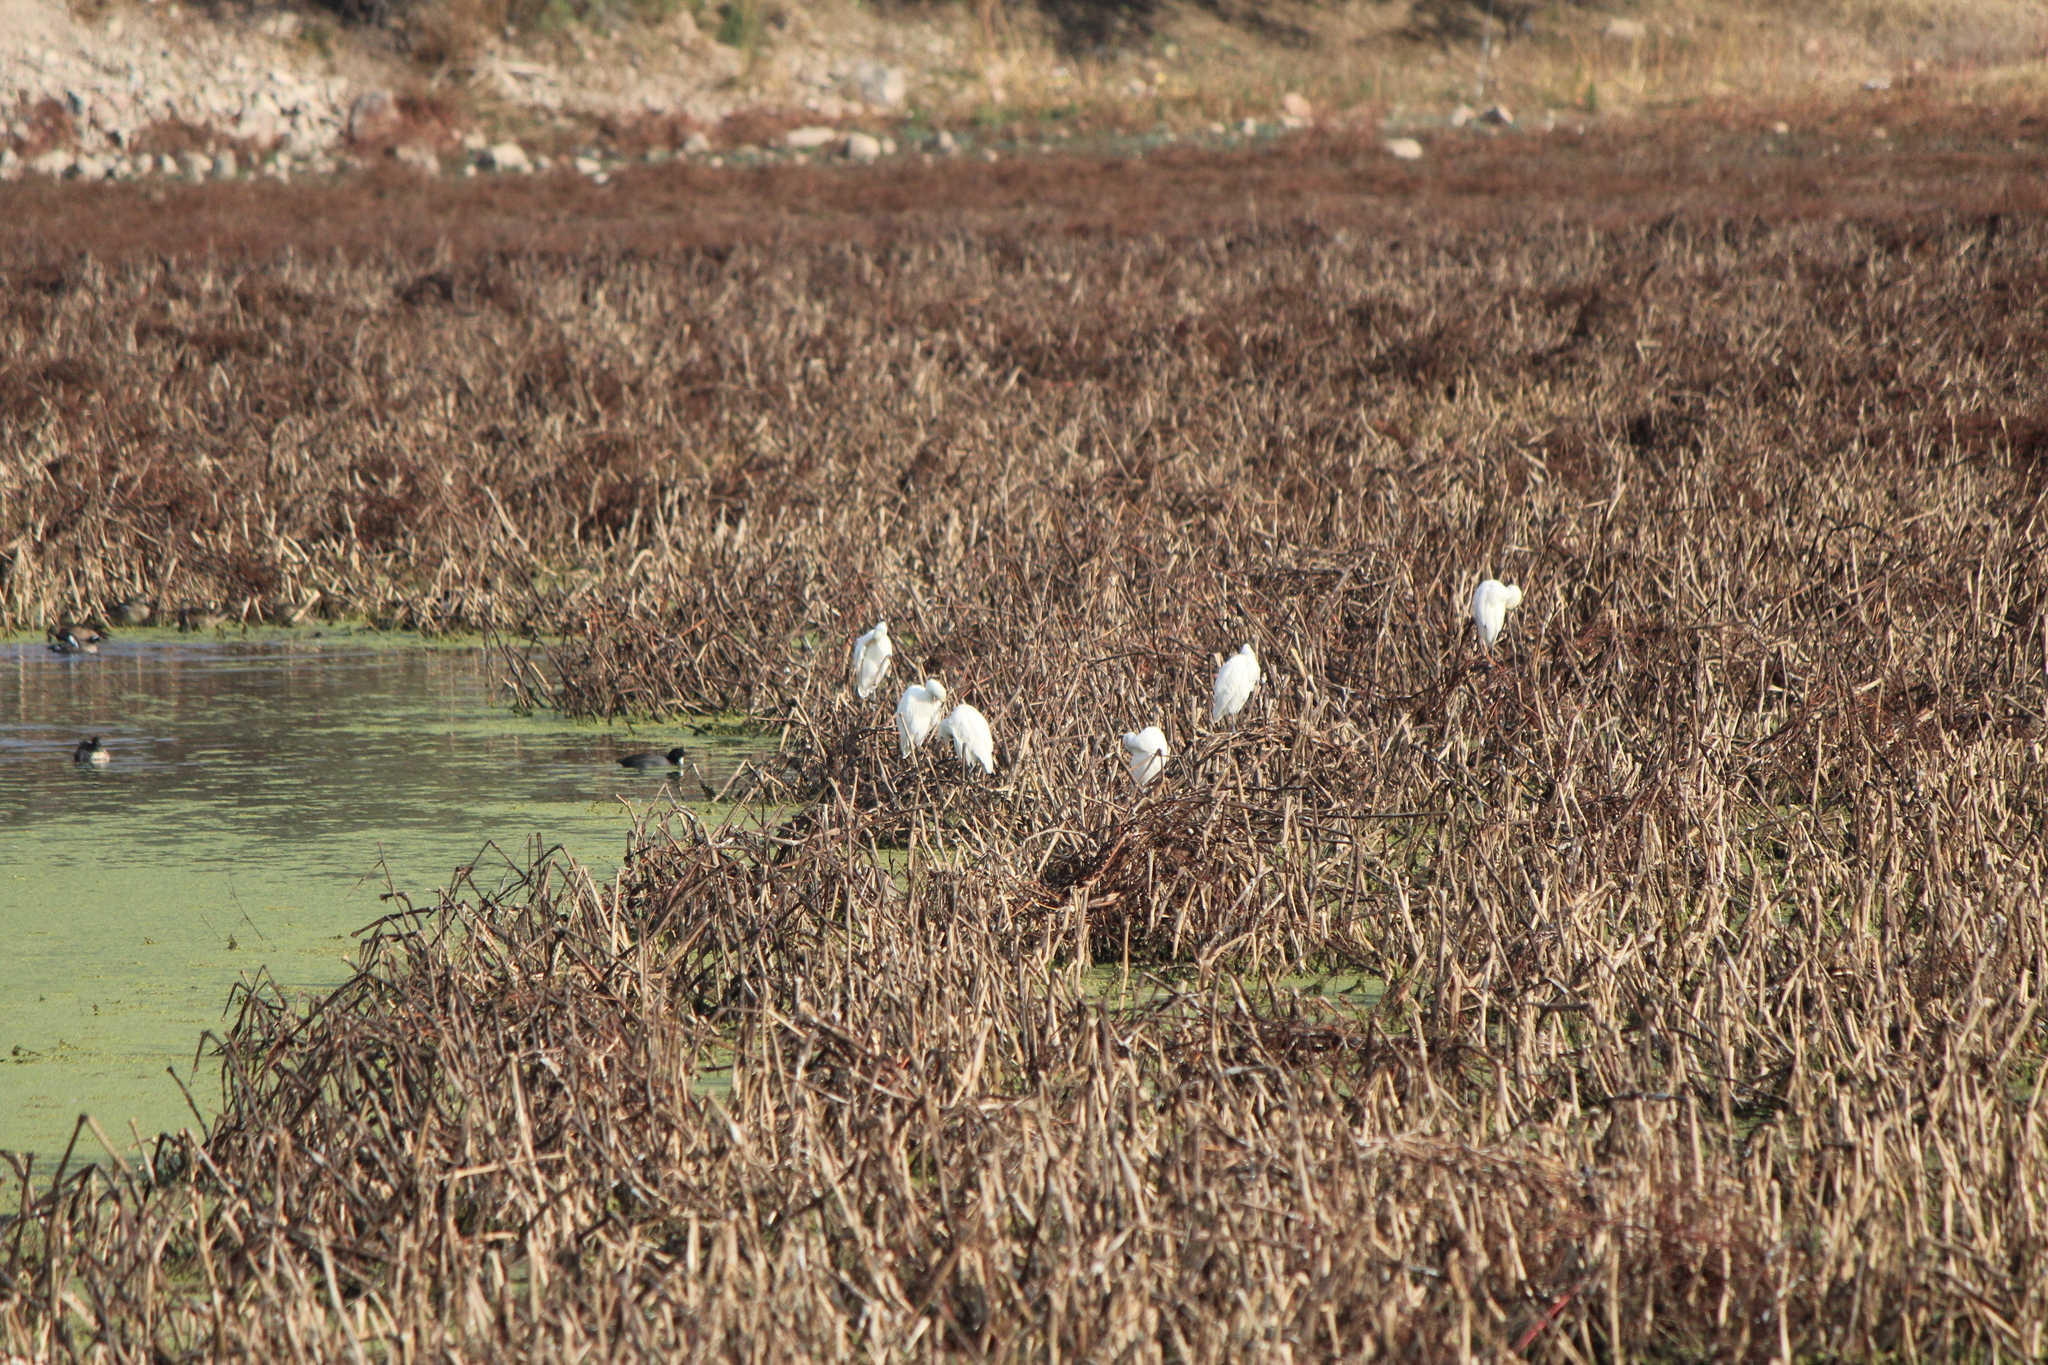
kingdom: Animalia
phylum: Chordata
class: Aves
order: Pelecaniformes
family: Ardeidae
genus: Bubulcus
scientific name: Bubulcus ibis
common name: Cattle egret
